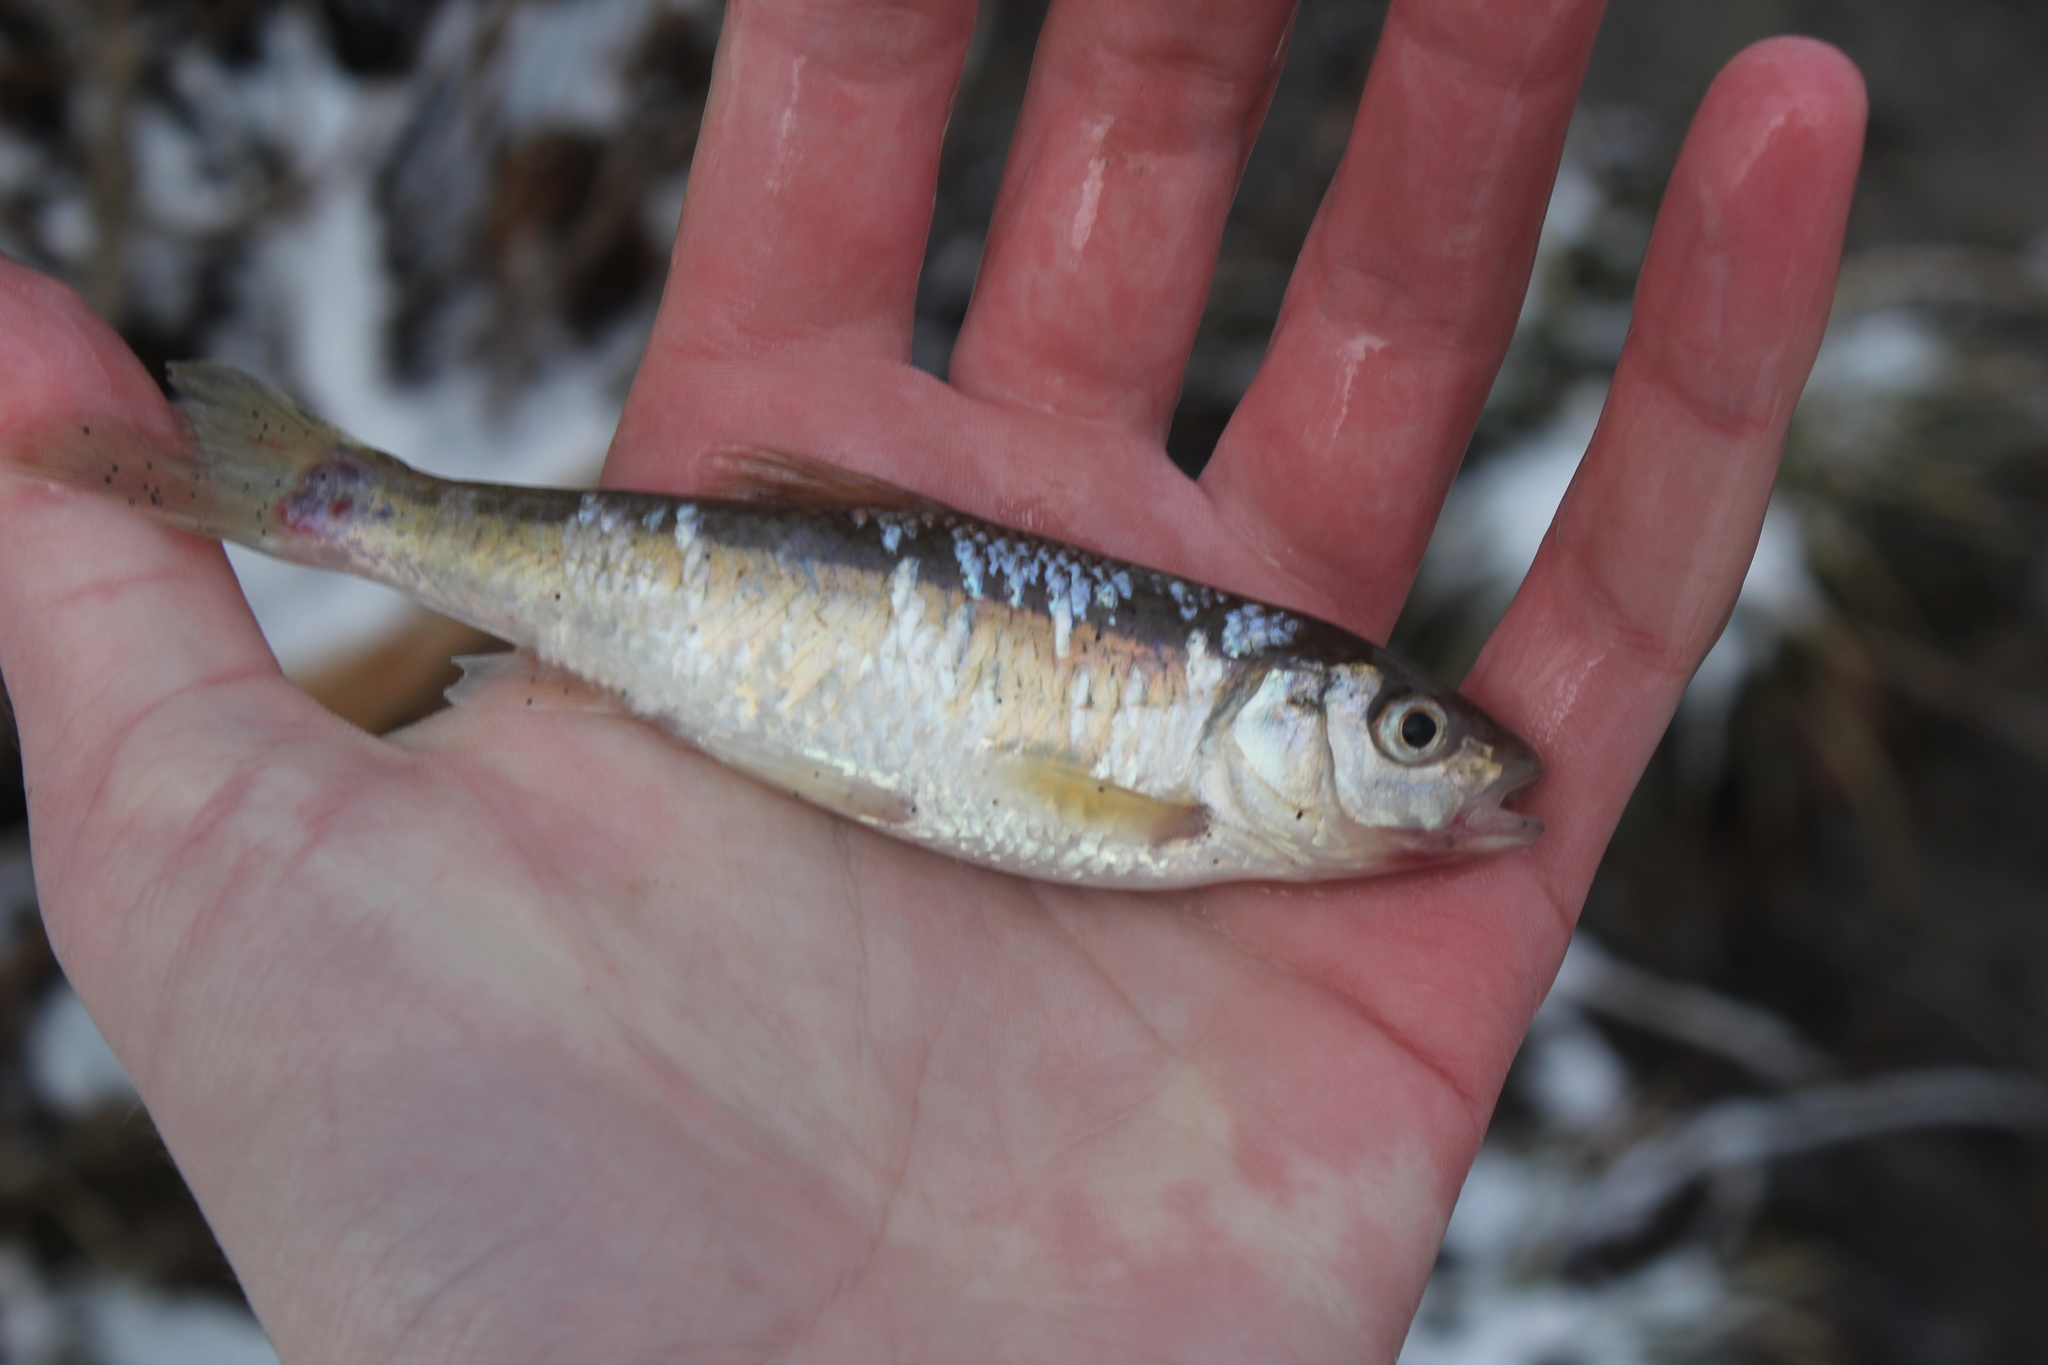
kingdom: Animalia
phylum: Chordata
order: Cypriniformes
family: Cyprinidae
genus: Luxilus
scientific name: Luxilus chrysocephalus
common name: Striped shiner
